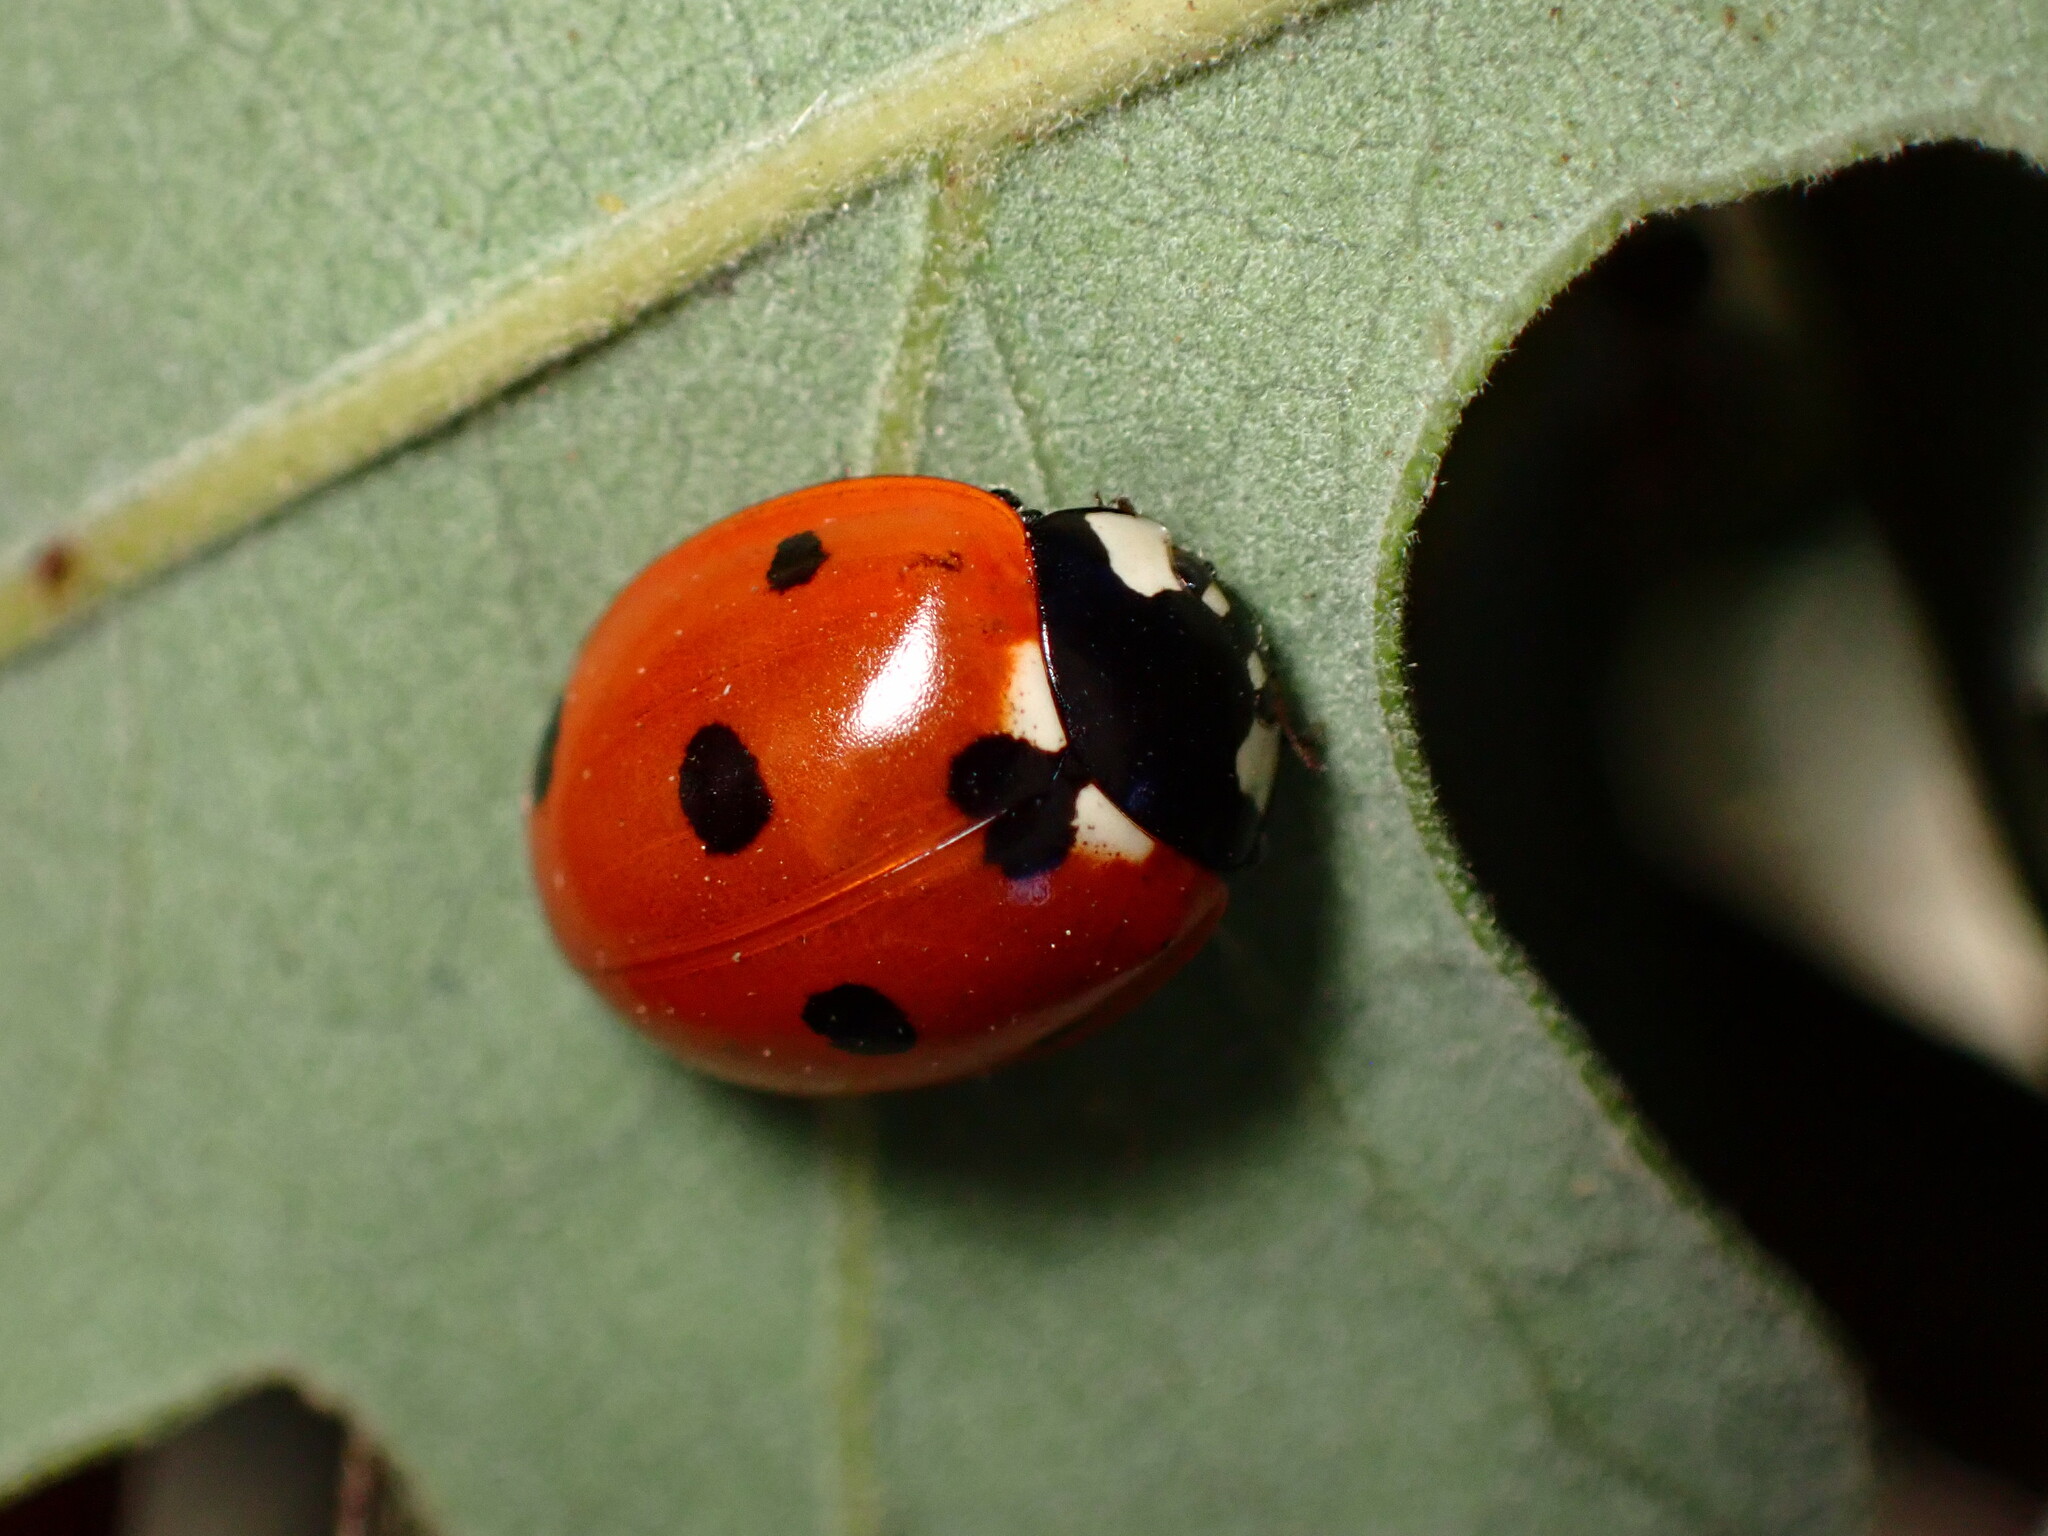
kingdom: Animalia
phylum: Arthropoda
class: Insecta
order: Coleoptera
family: Coccinellidae
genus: Coccinella
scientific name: Coccinella septempunctata
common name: Sevenspotted lady beetle
